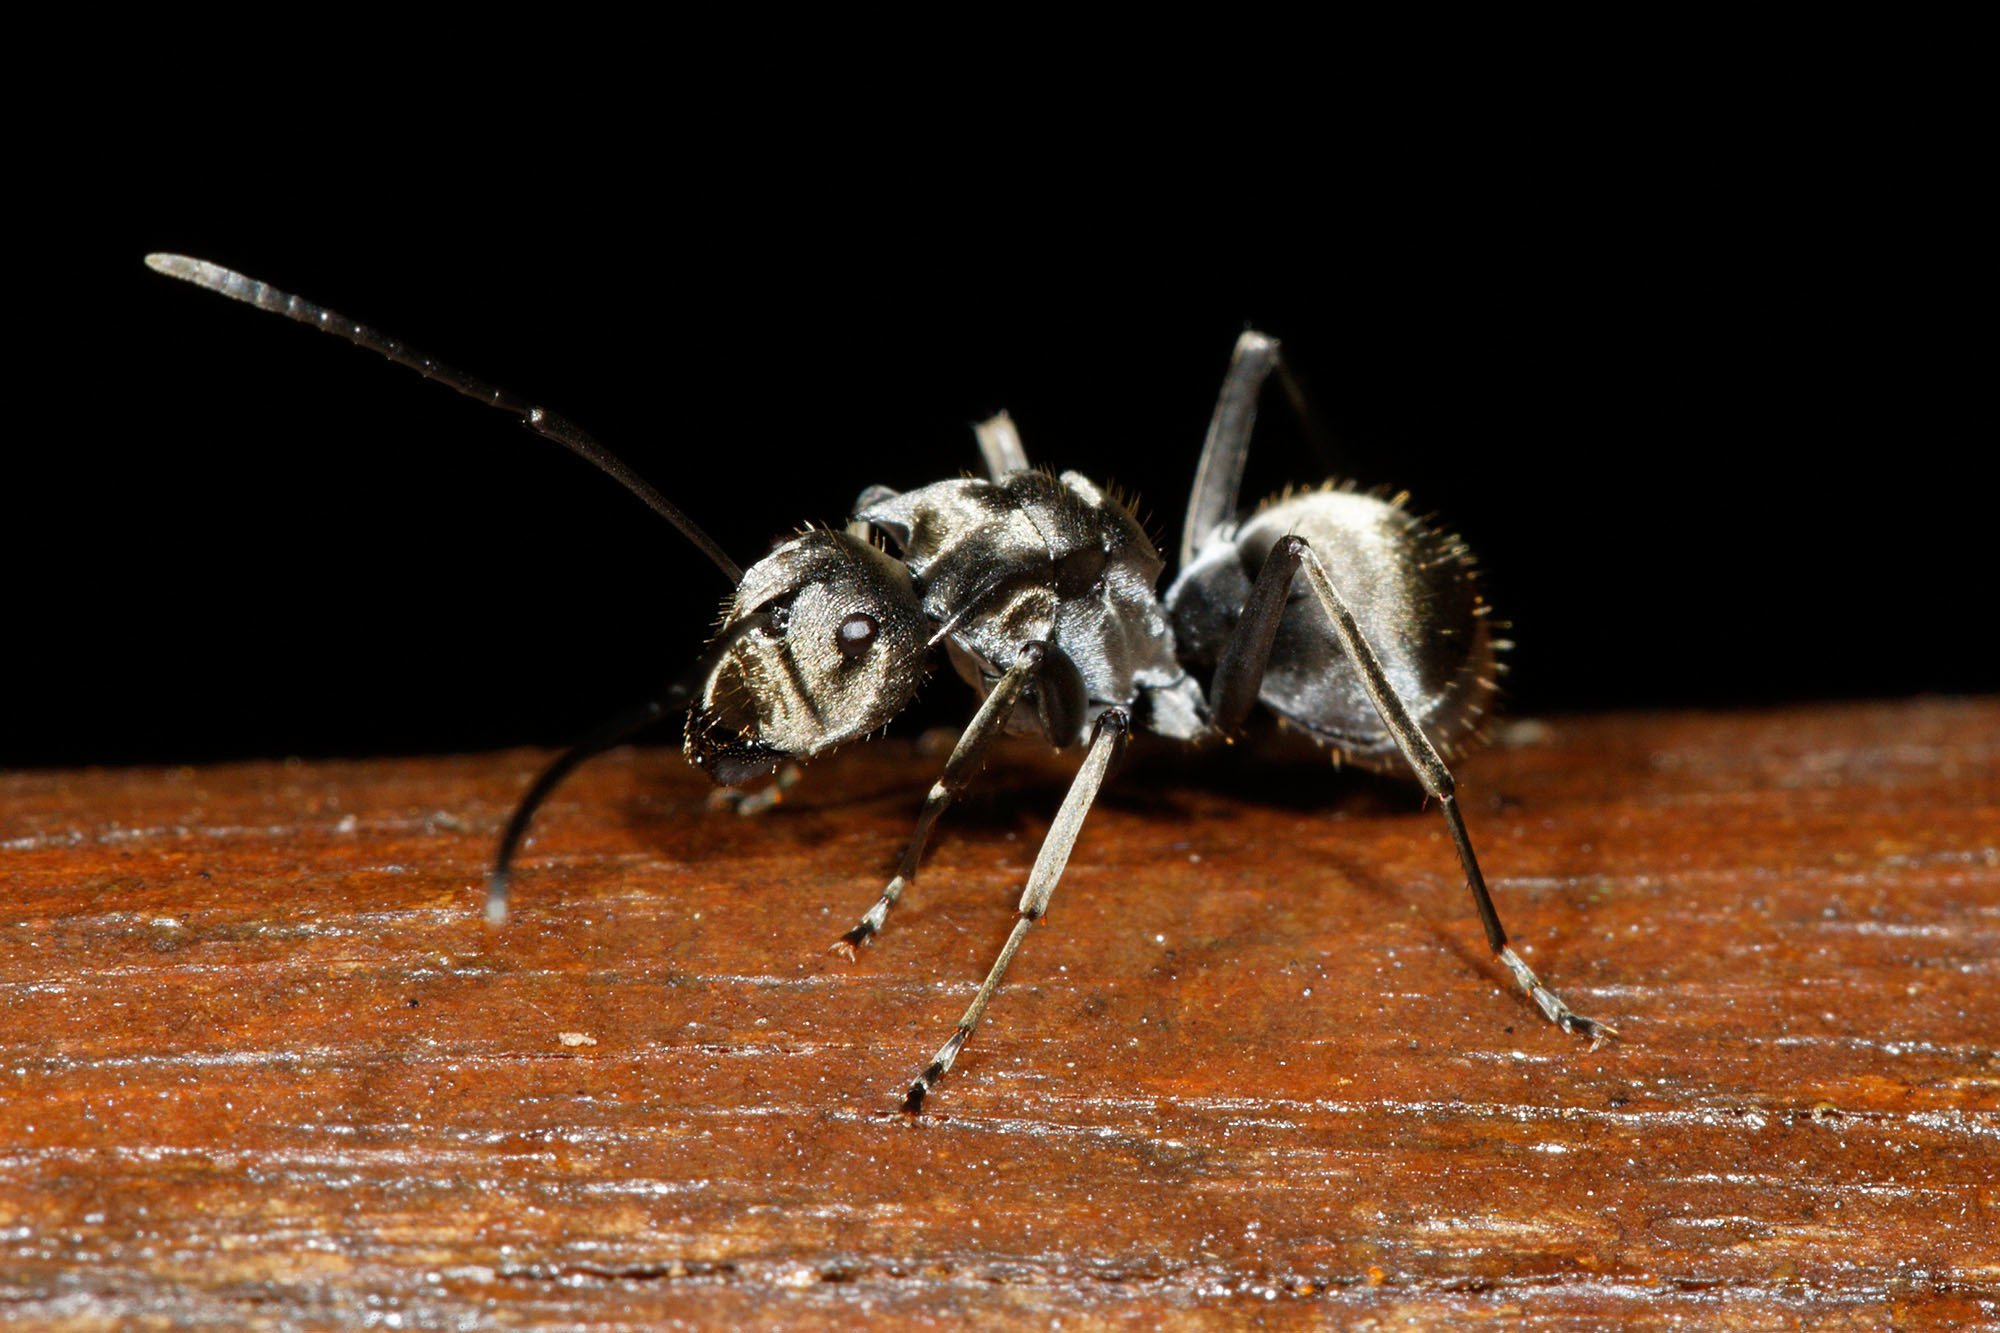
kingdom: Animalia
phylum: Arthropoda
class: Insecta
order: Hymenoptera
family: Formicidae
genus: Polyrhachis
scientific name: Polyrhachis foreli
